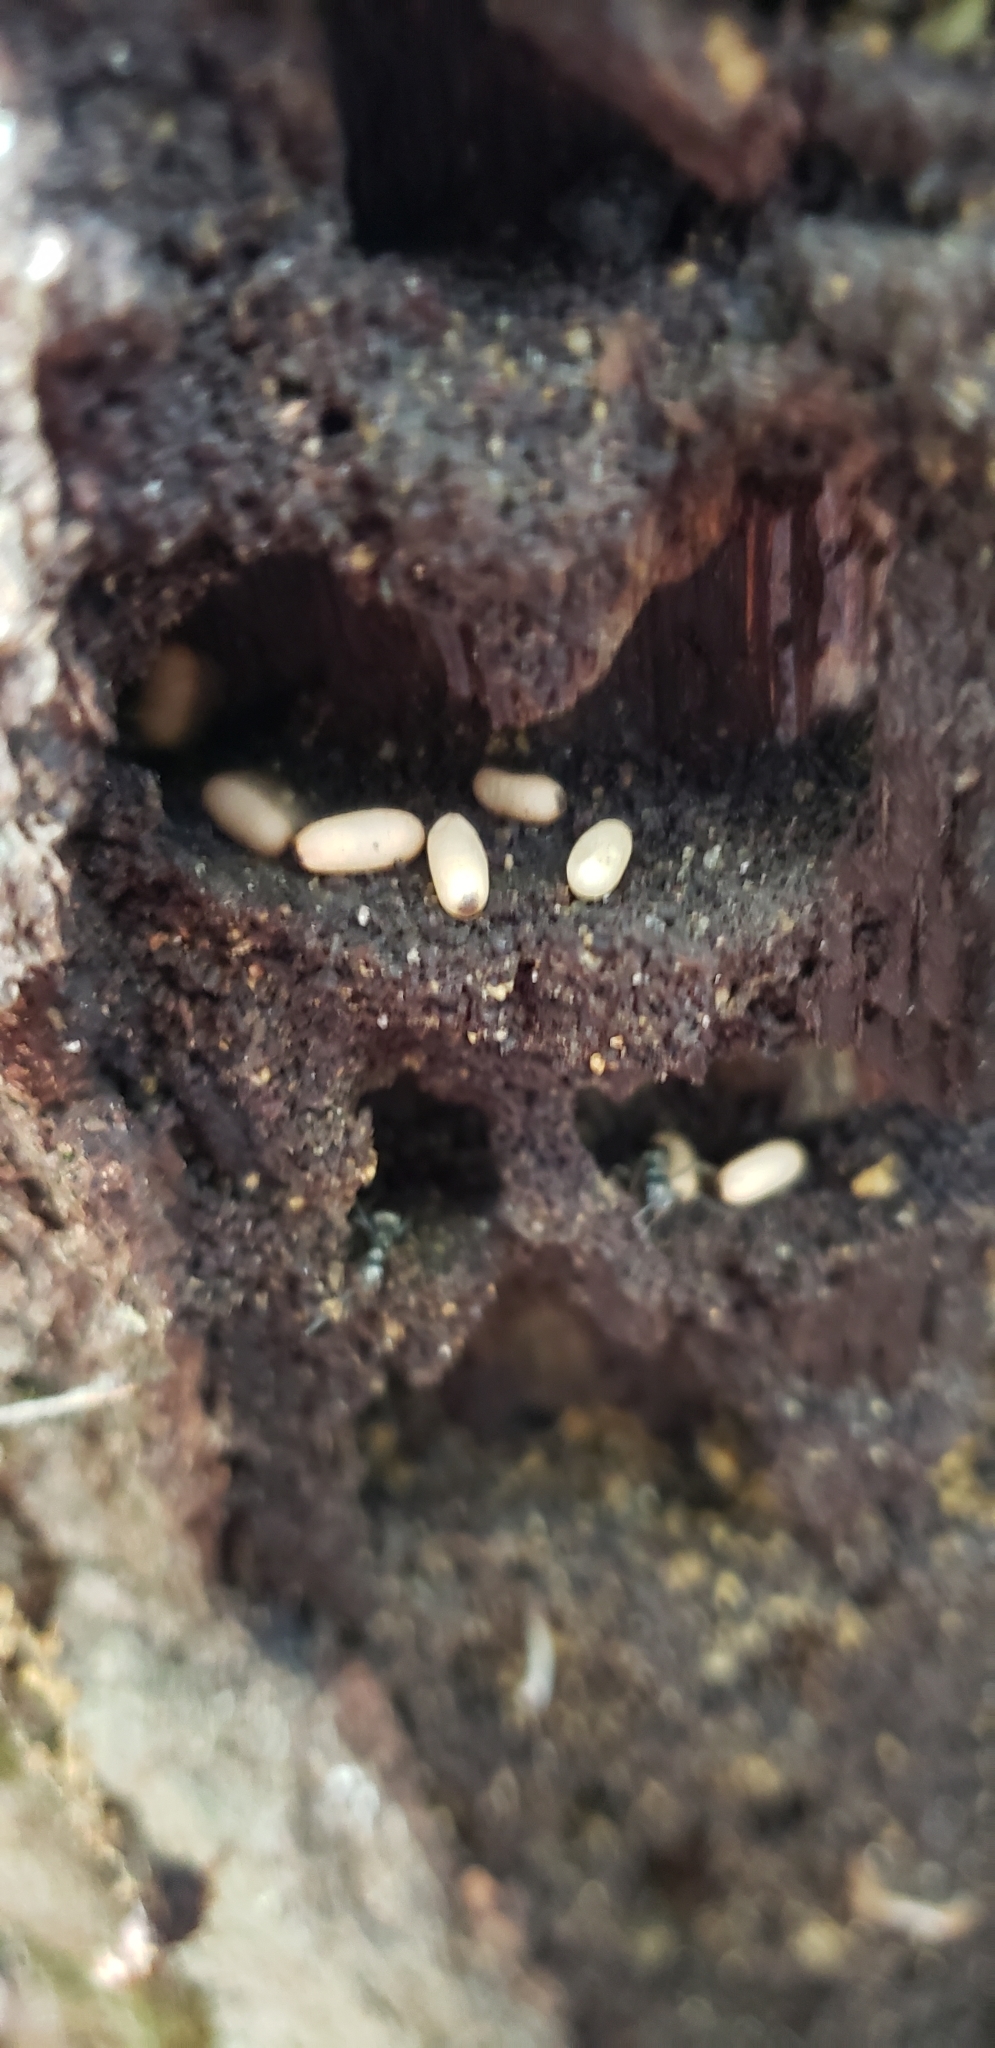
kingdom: Animalia
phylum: Arthropoda
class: Insecta
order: Hymenoptera
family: Formicidae
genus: Camponotus
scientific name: Camponotus pennsylvanicus
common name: Black carpenter ant
